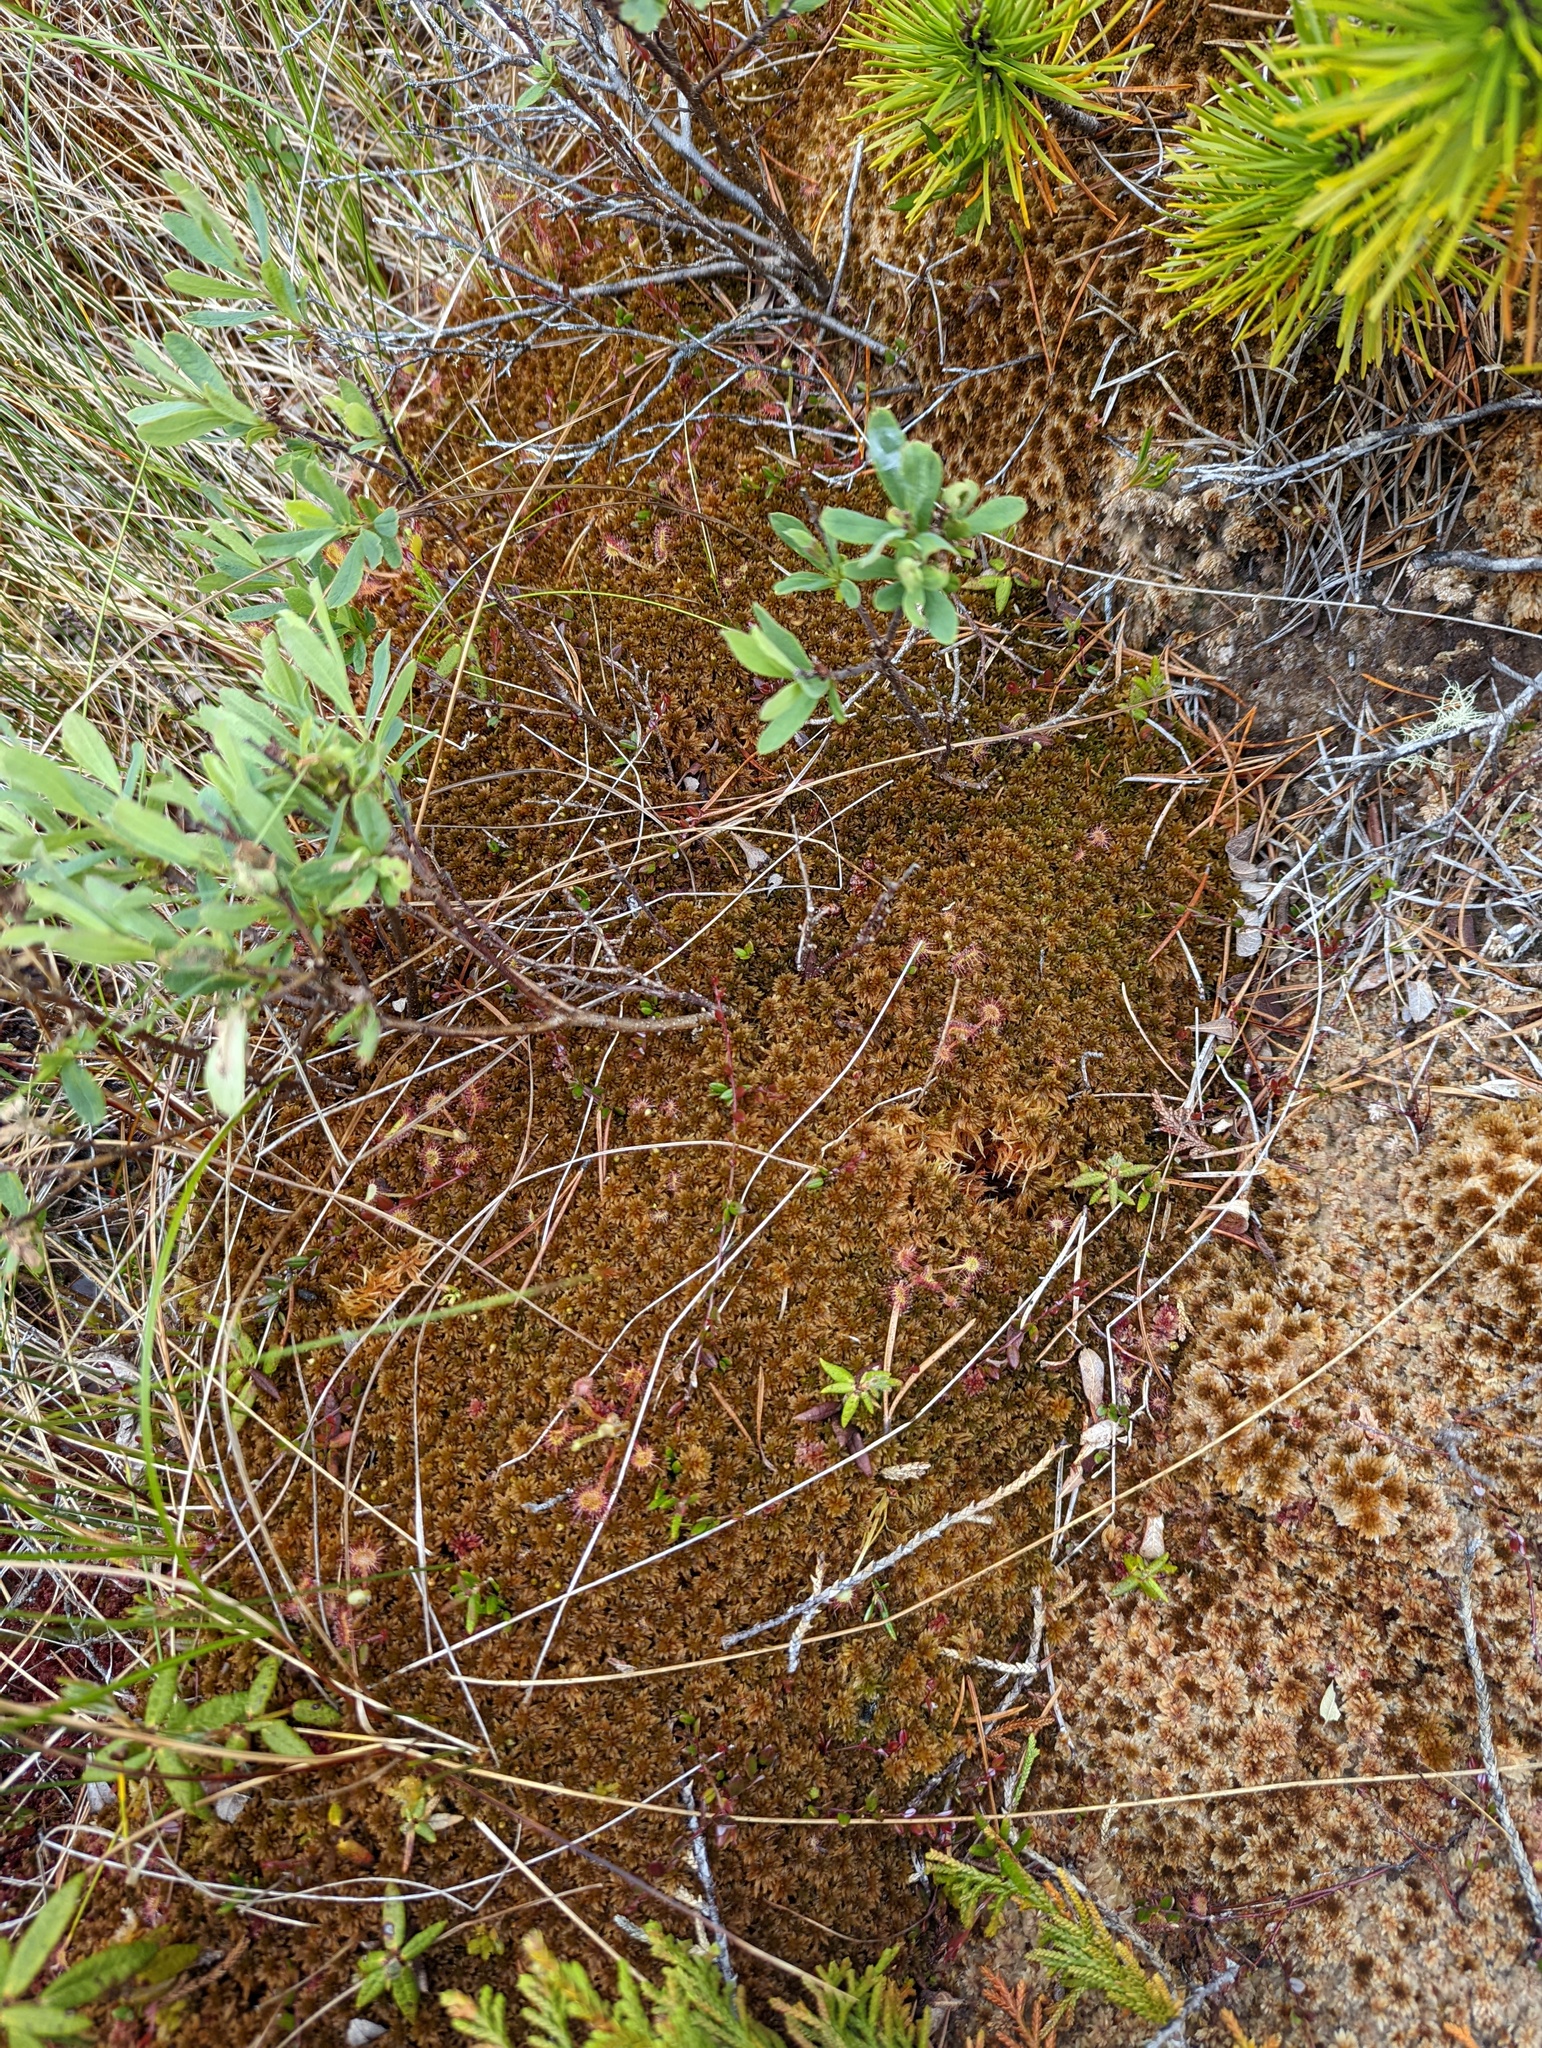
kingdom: Plantae
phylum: Bryophyta
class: Sphagnopsida
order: Sphagnales
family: Sphagnaceae
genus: Sphagnum
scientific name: Sphagnum fuscum
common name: Brown peat moss
